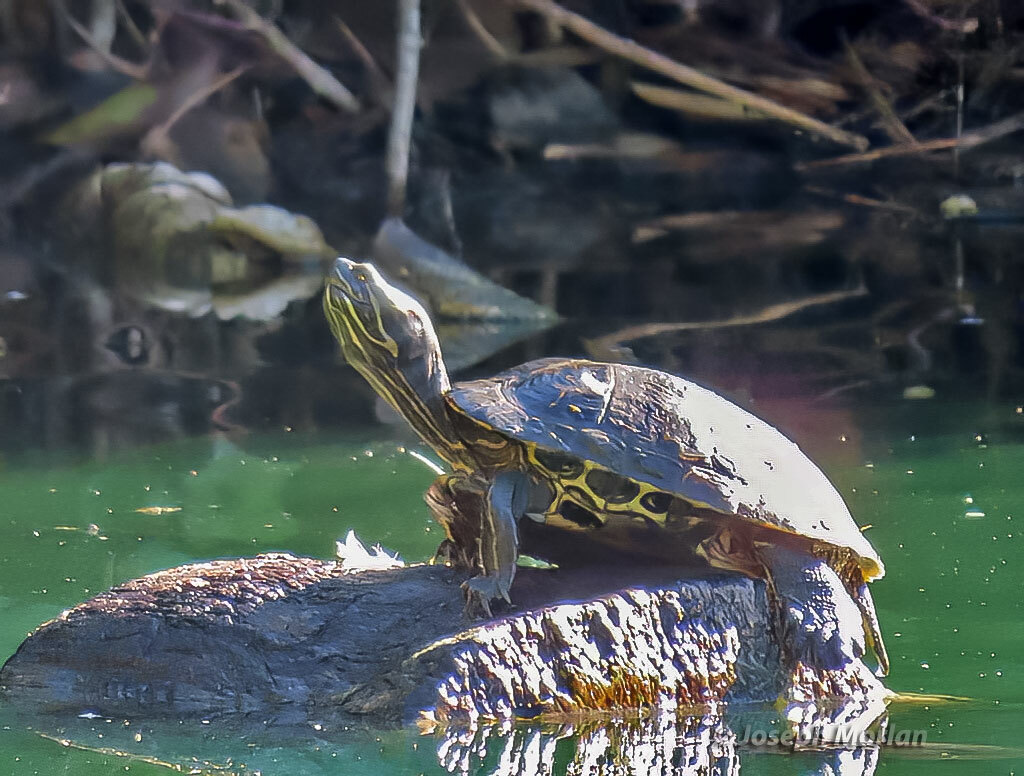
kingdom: Animalia
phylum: Chordata
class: Testudines
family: Emydidae
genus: Trachemys
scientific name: Trachemys scripta
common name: Slider
